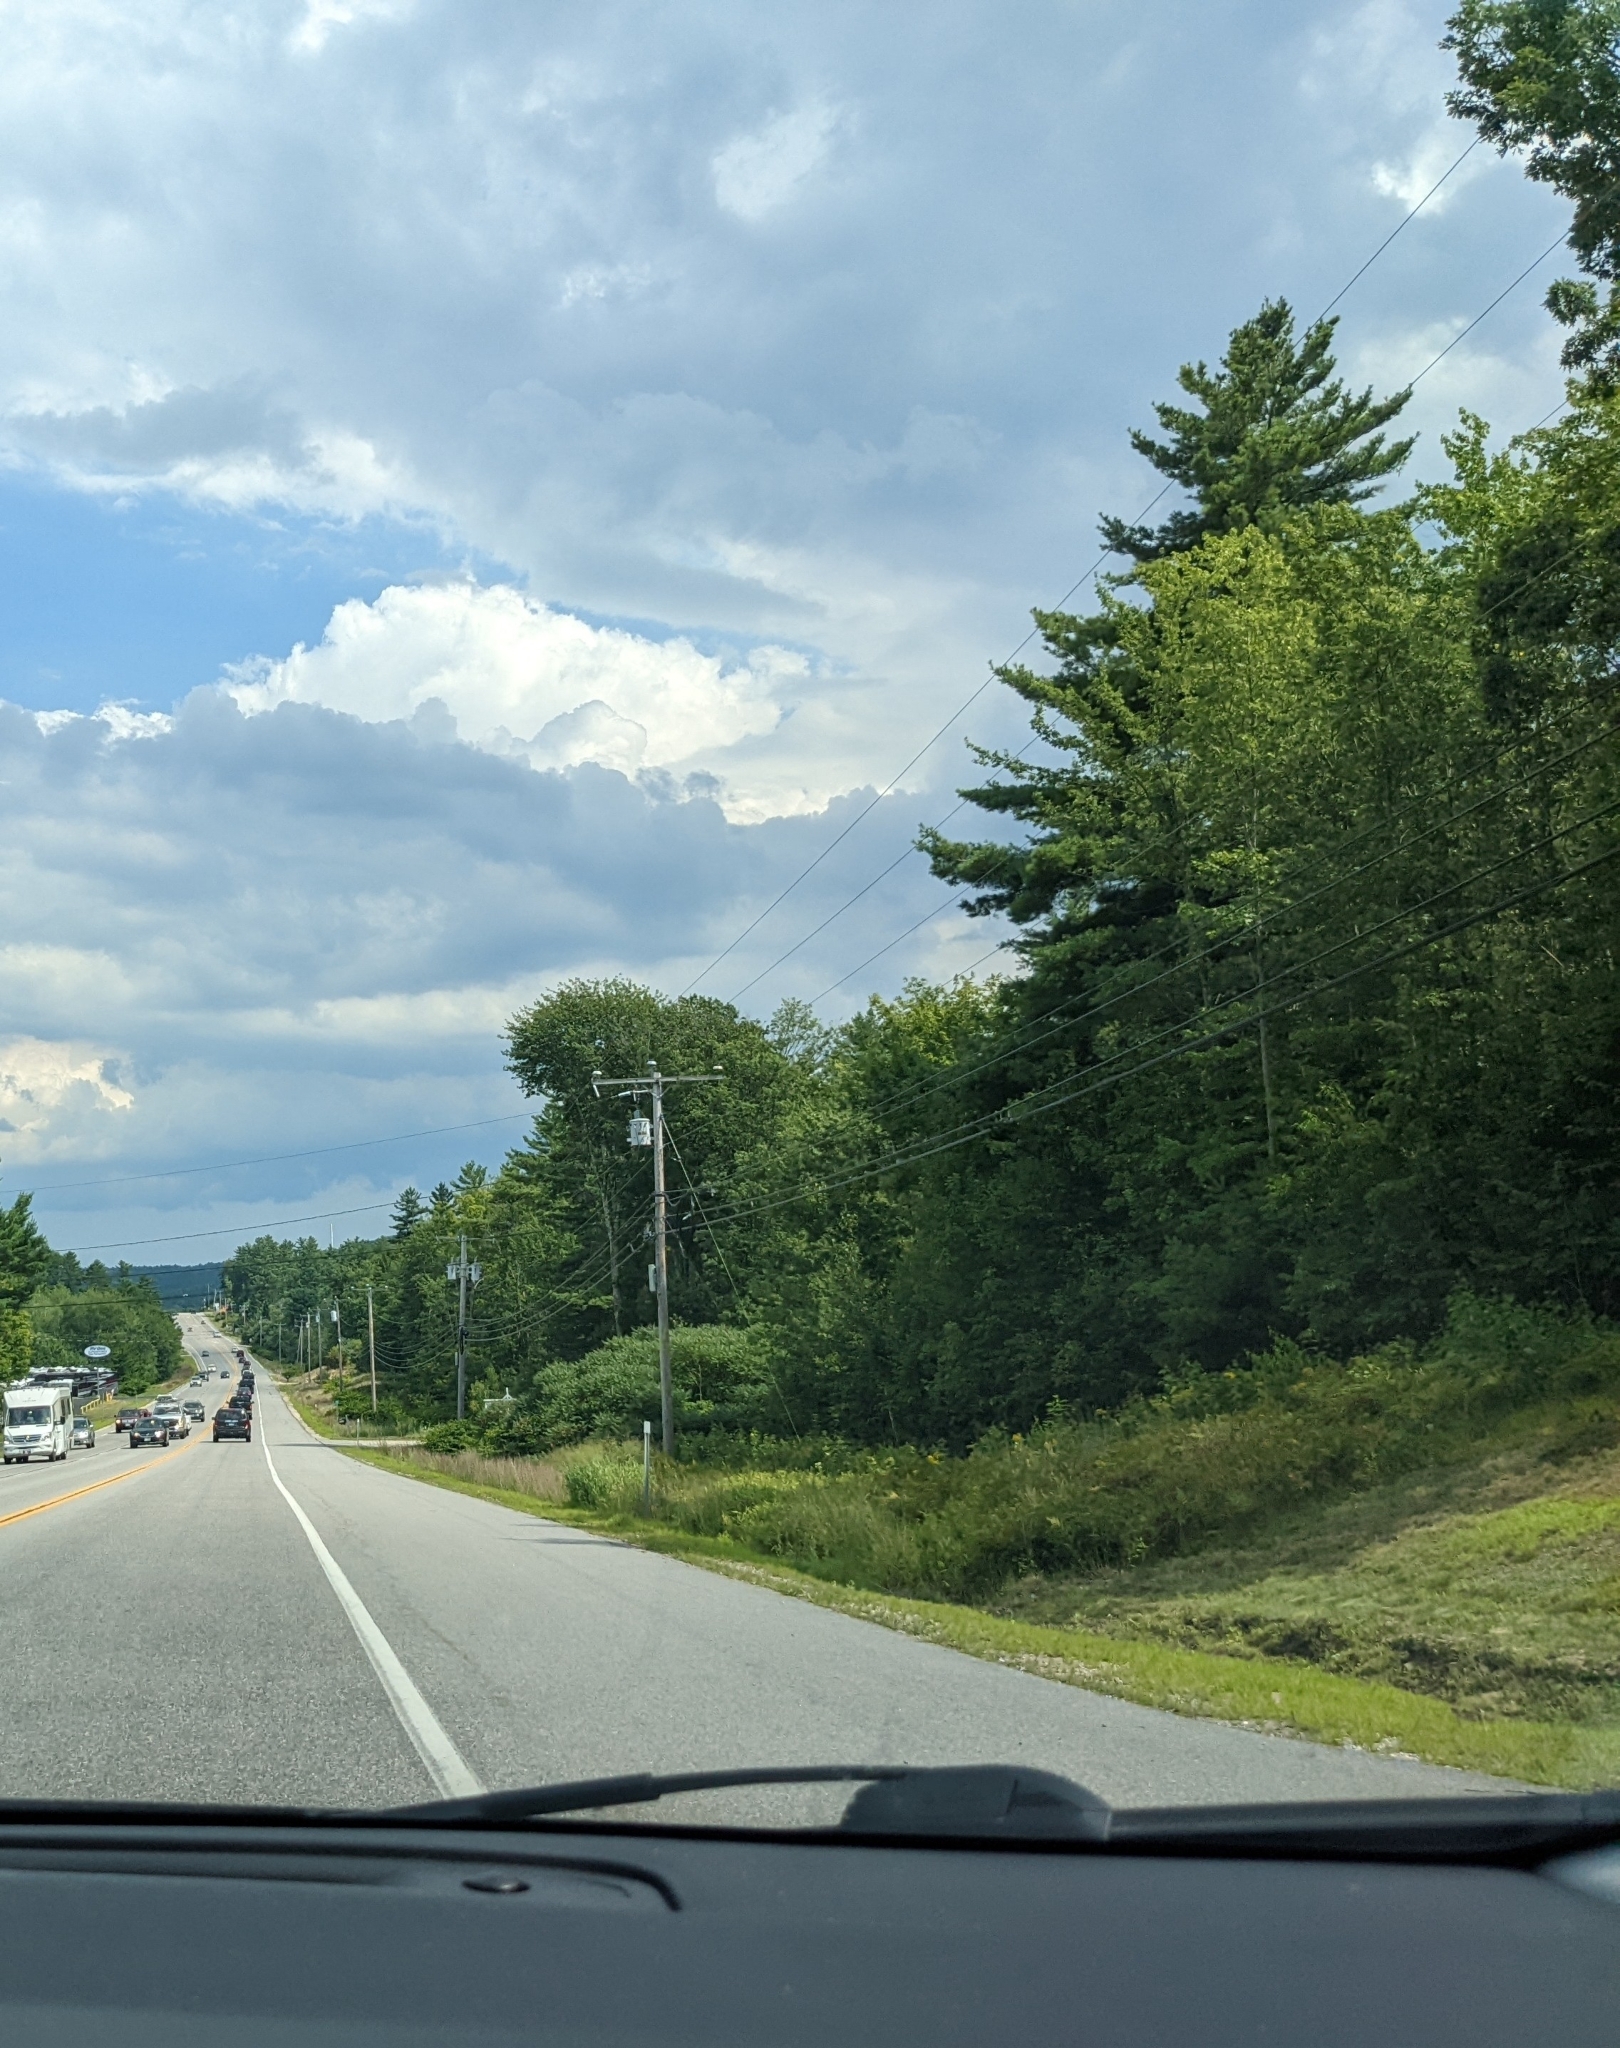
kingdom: Plantae
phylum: Tracheophyta
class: Pinopsida
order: Pinales
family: Pinaceae
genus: Pinus
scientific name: Pinus strobus
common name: Weymouth pine
